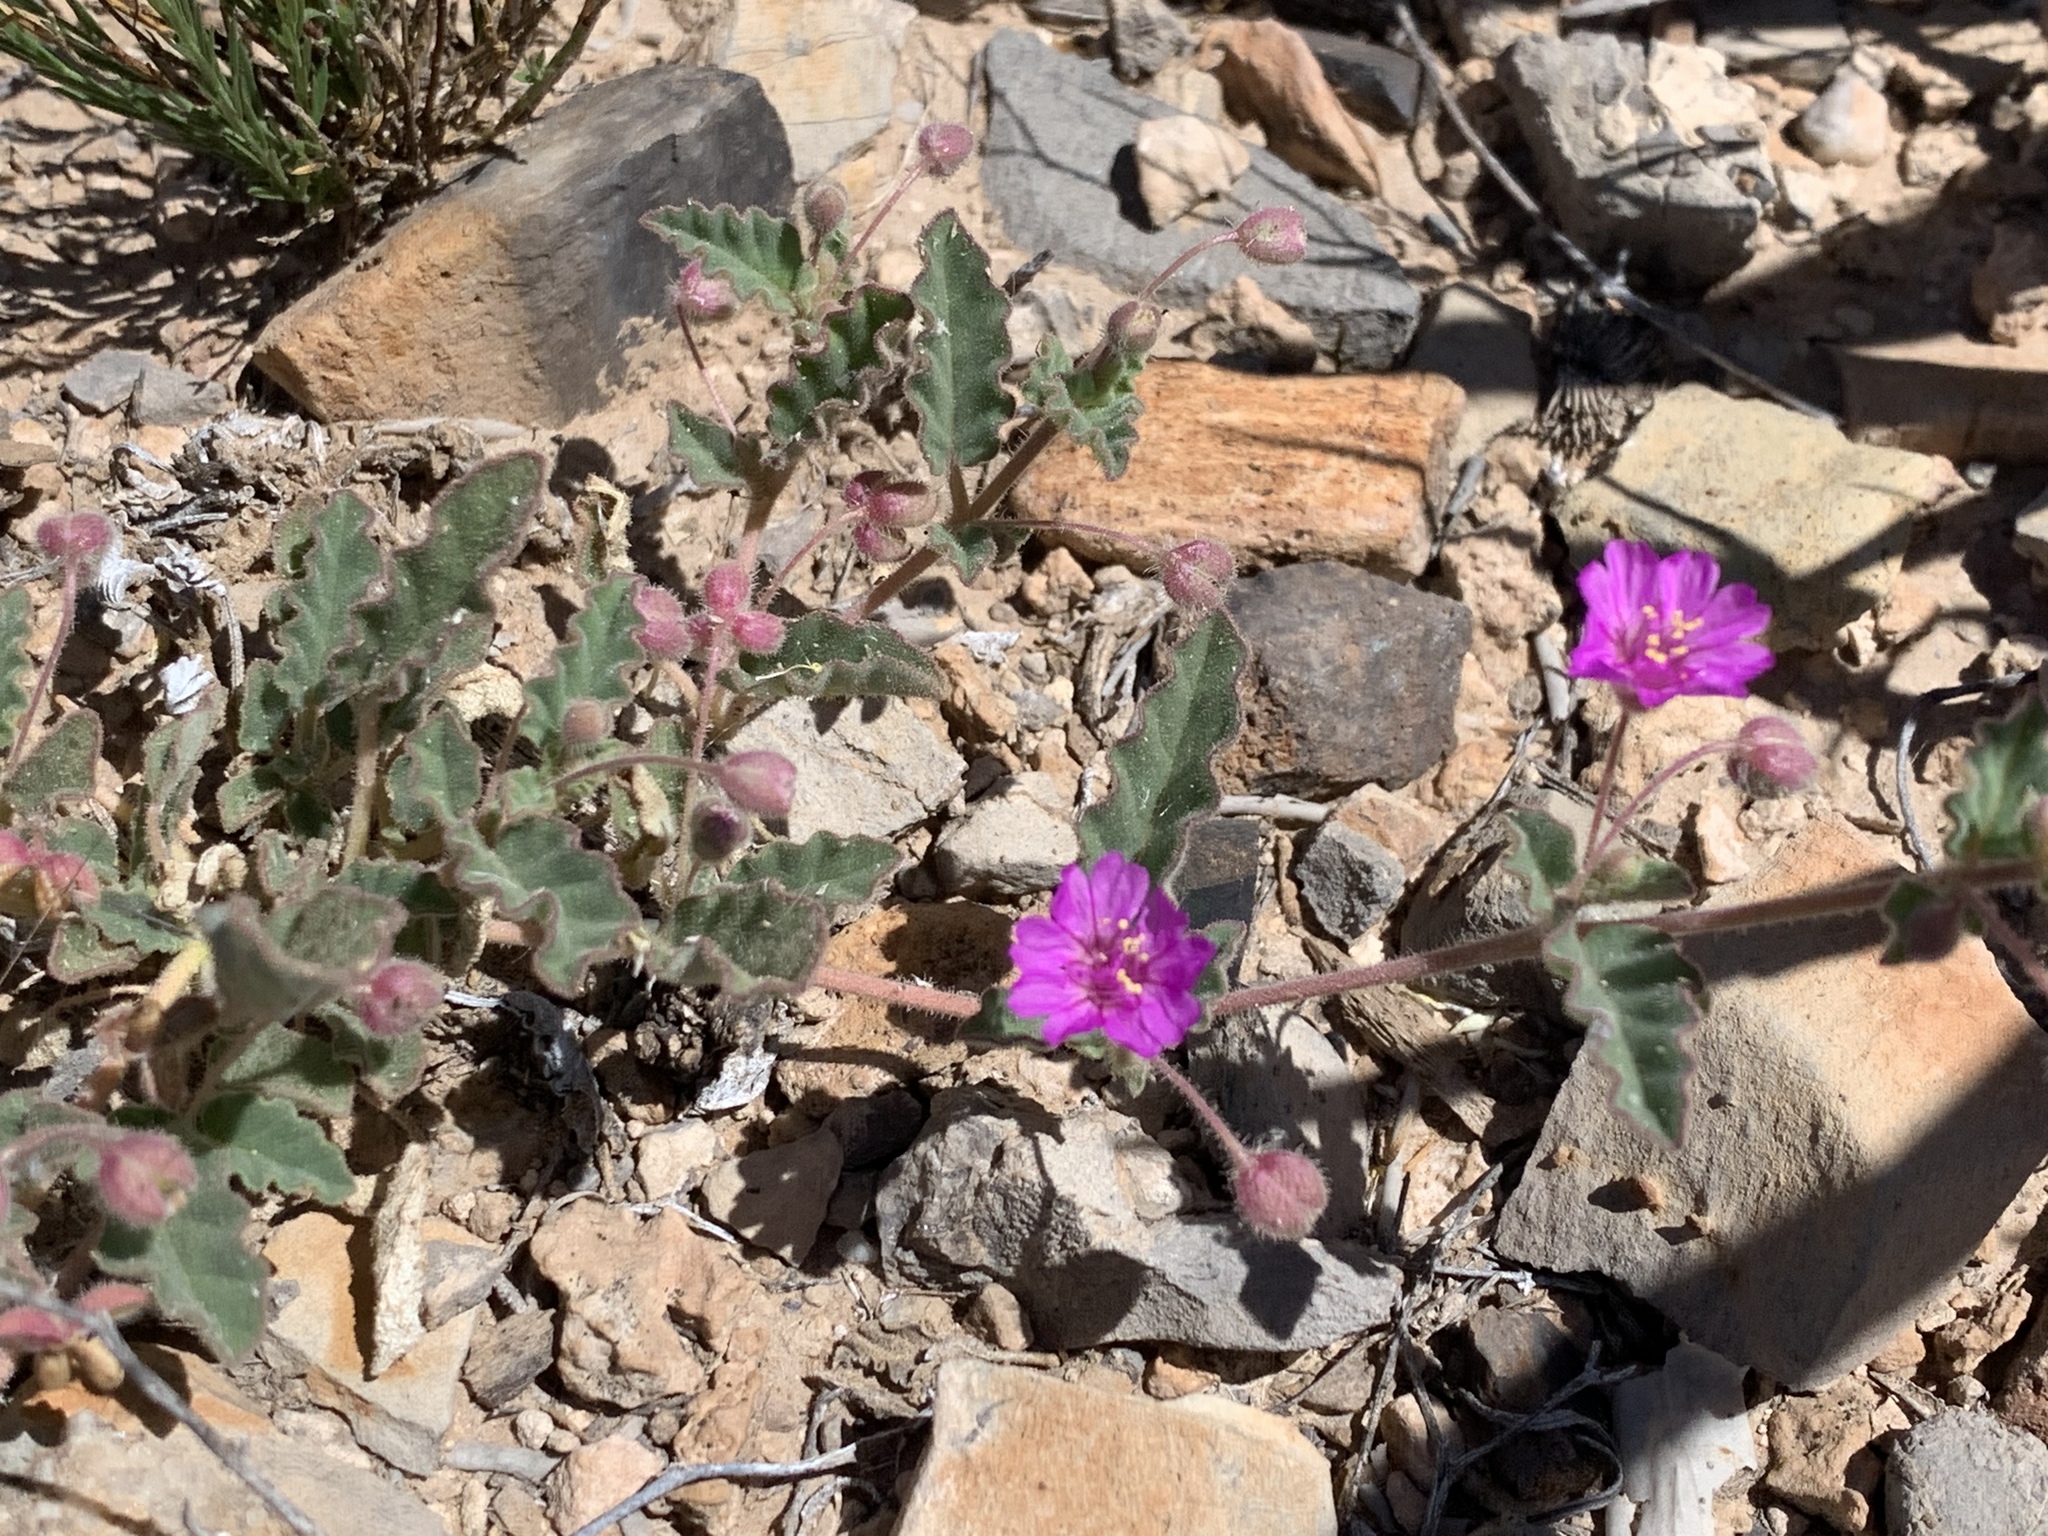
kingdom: Plantae
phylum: Tracheophyta
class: Magnoliopsida
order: Caryophyllales
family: Nyctaginaceae
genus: Allionia
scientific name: Allionia incarnata
